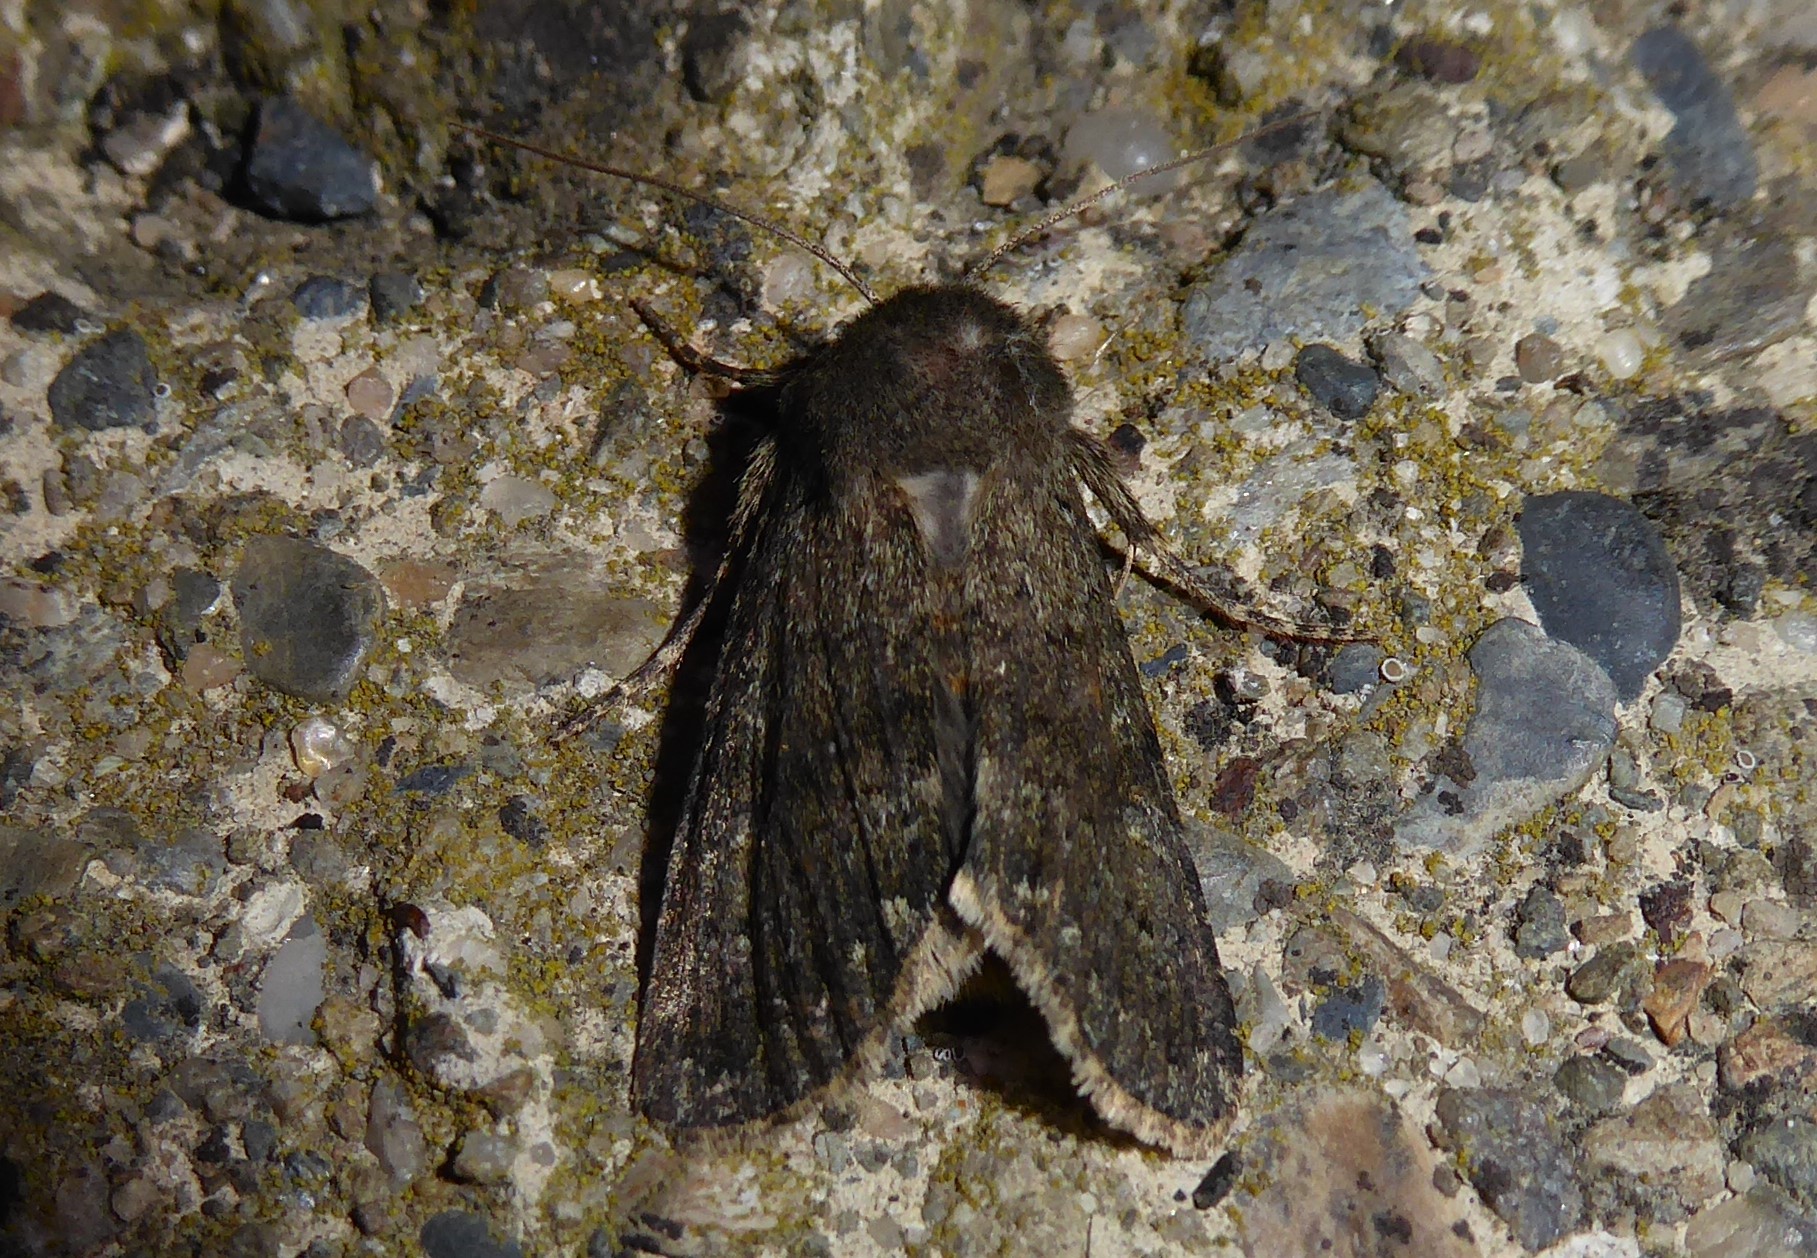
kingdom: Animalia
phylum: Arthropoda
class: Insecta
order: Lepidoptera
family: Noctuidae
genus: Ichneutica
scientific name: Ichneutica moderata
